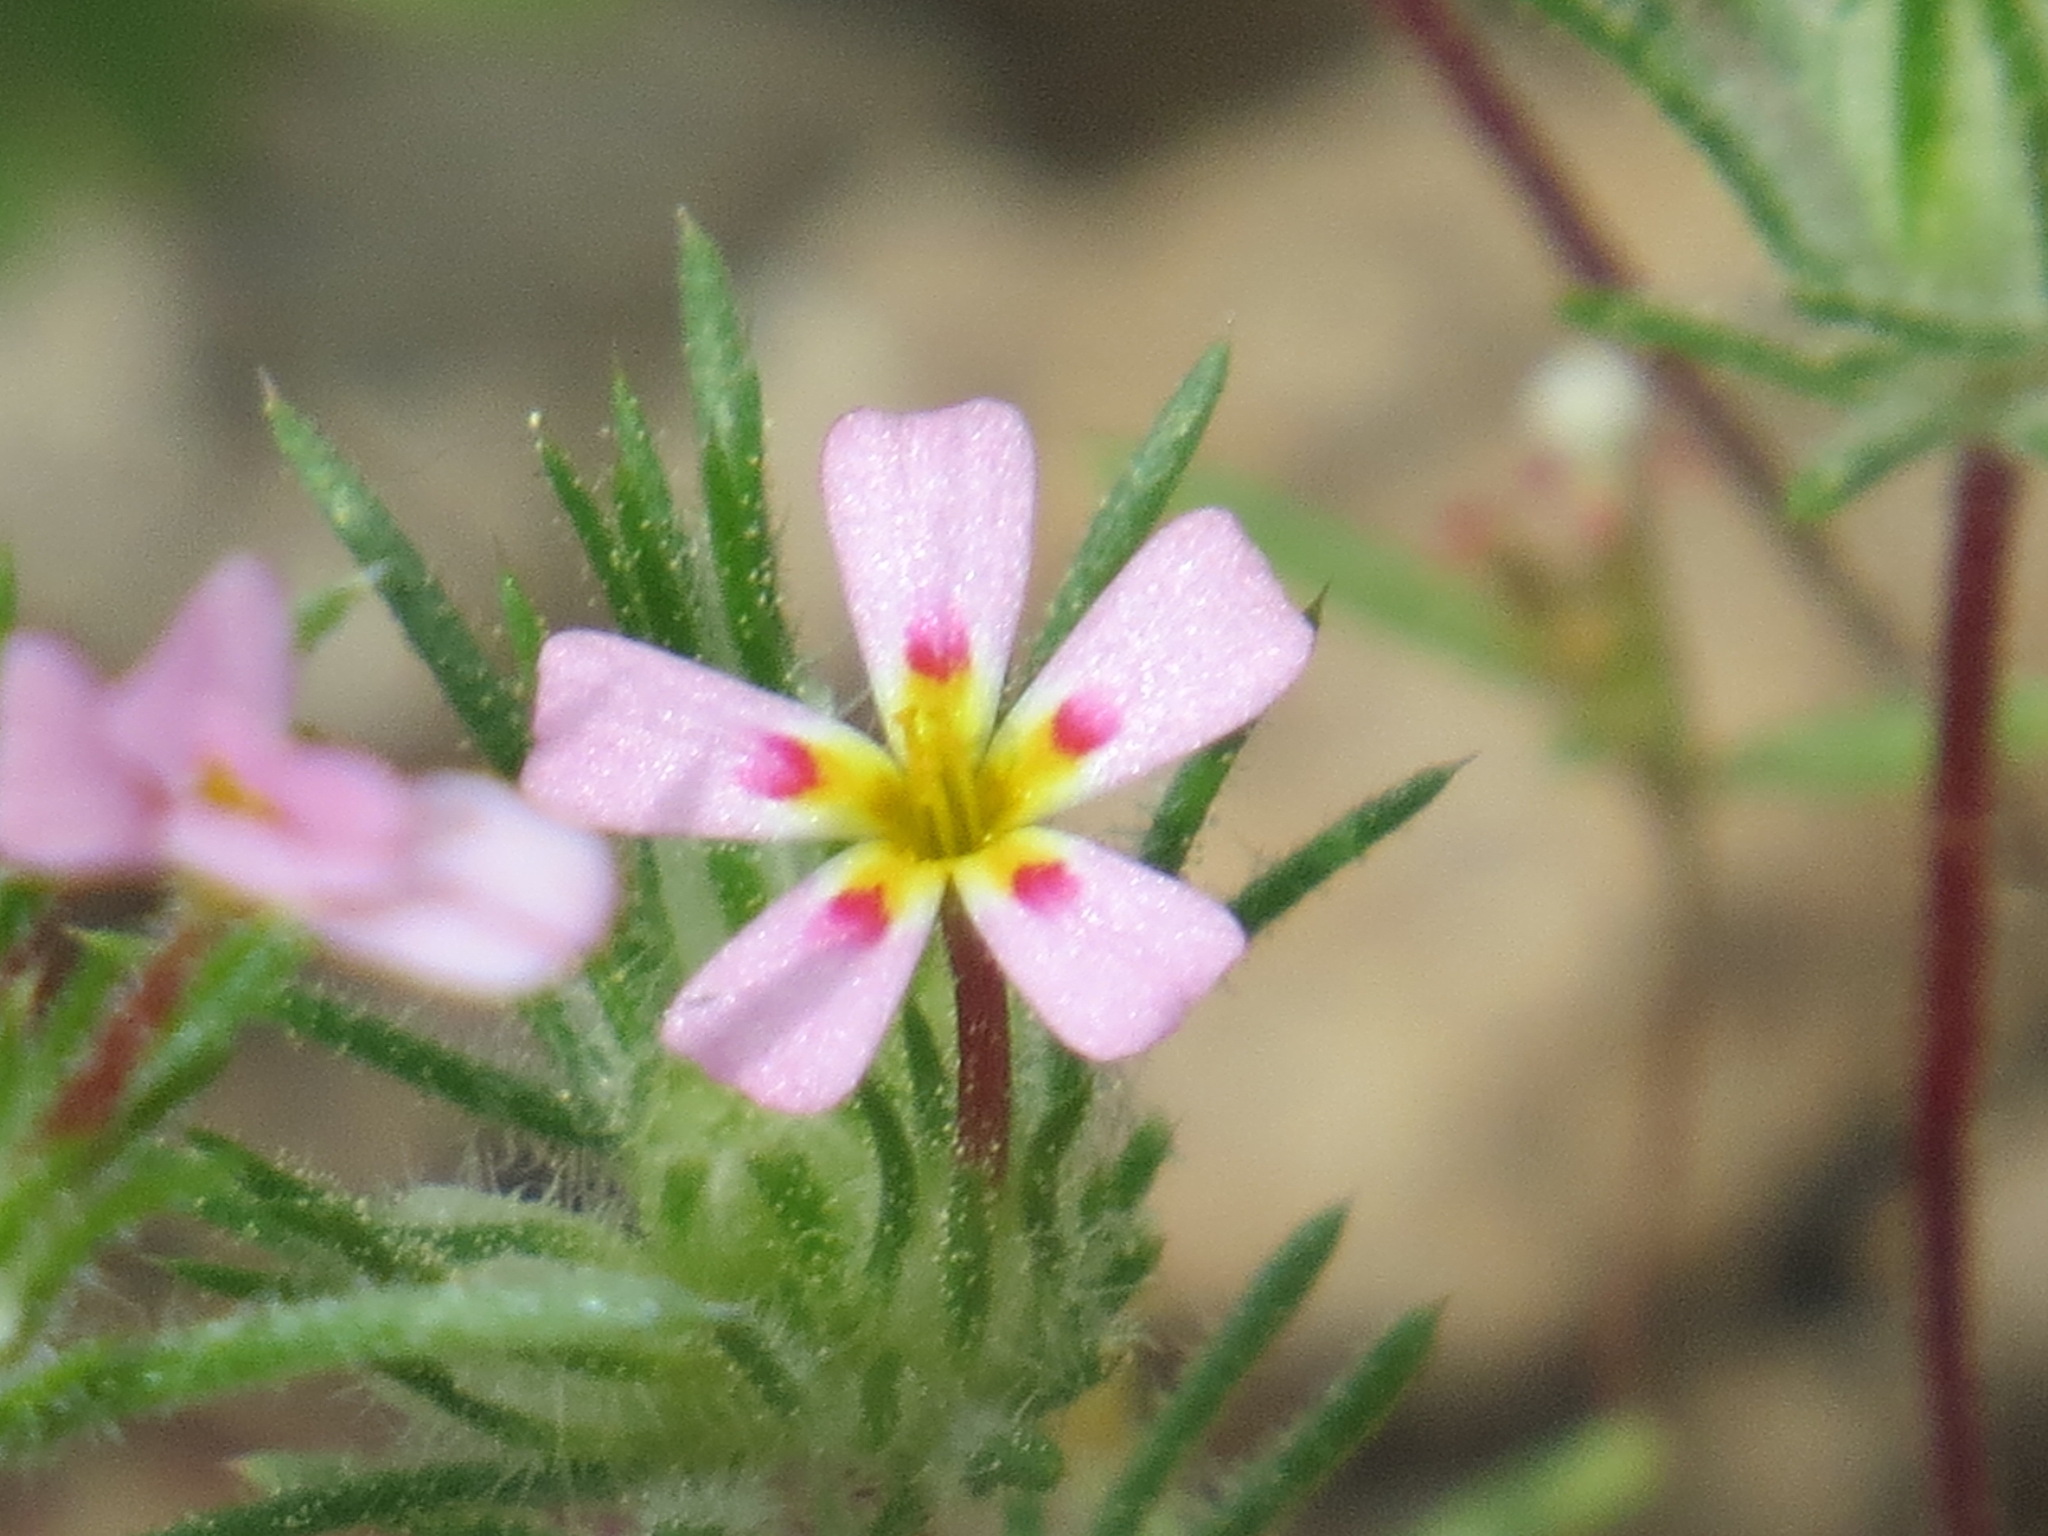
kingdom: Plantae
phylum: Tracheophyta
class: Magnoliopsida
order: Ericales
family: Polemoniaceae
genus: Leptosiphon
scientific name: Leptosiphon ciliatus
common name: Whiskerbrush
